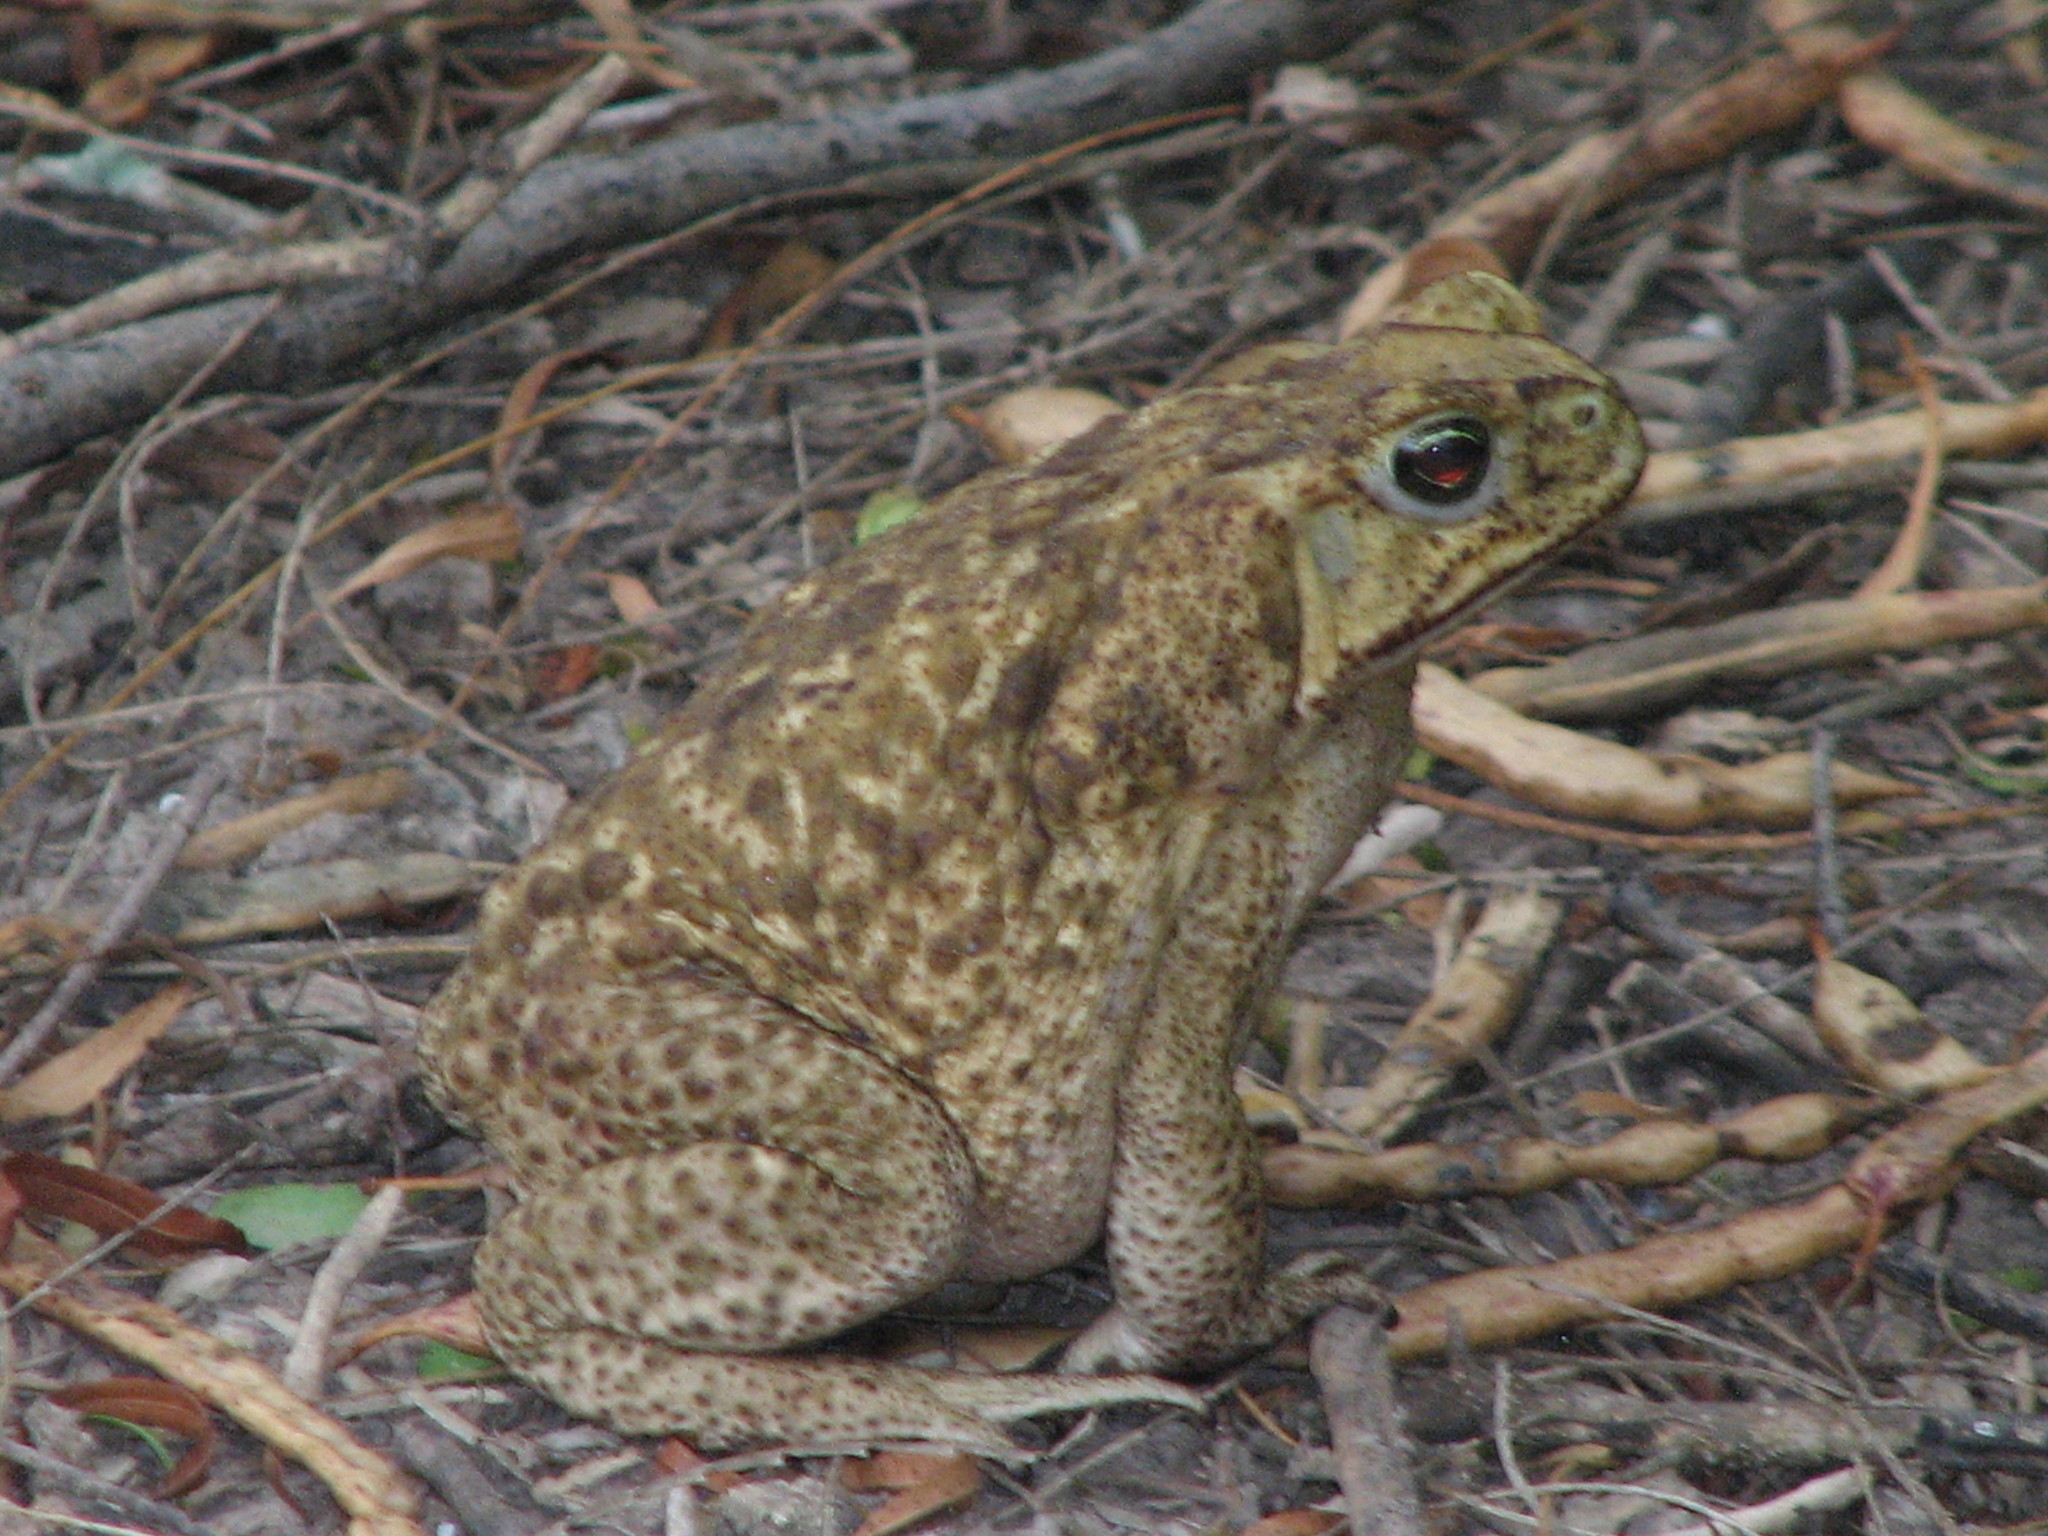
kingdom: Animalia
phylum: Chordata
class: Amphibia
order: Anura
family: Bufonidae
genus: Rhinella
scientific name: Rhinella horribilis
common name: Mesoamerican cane toad
